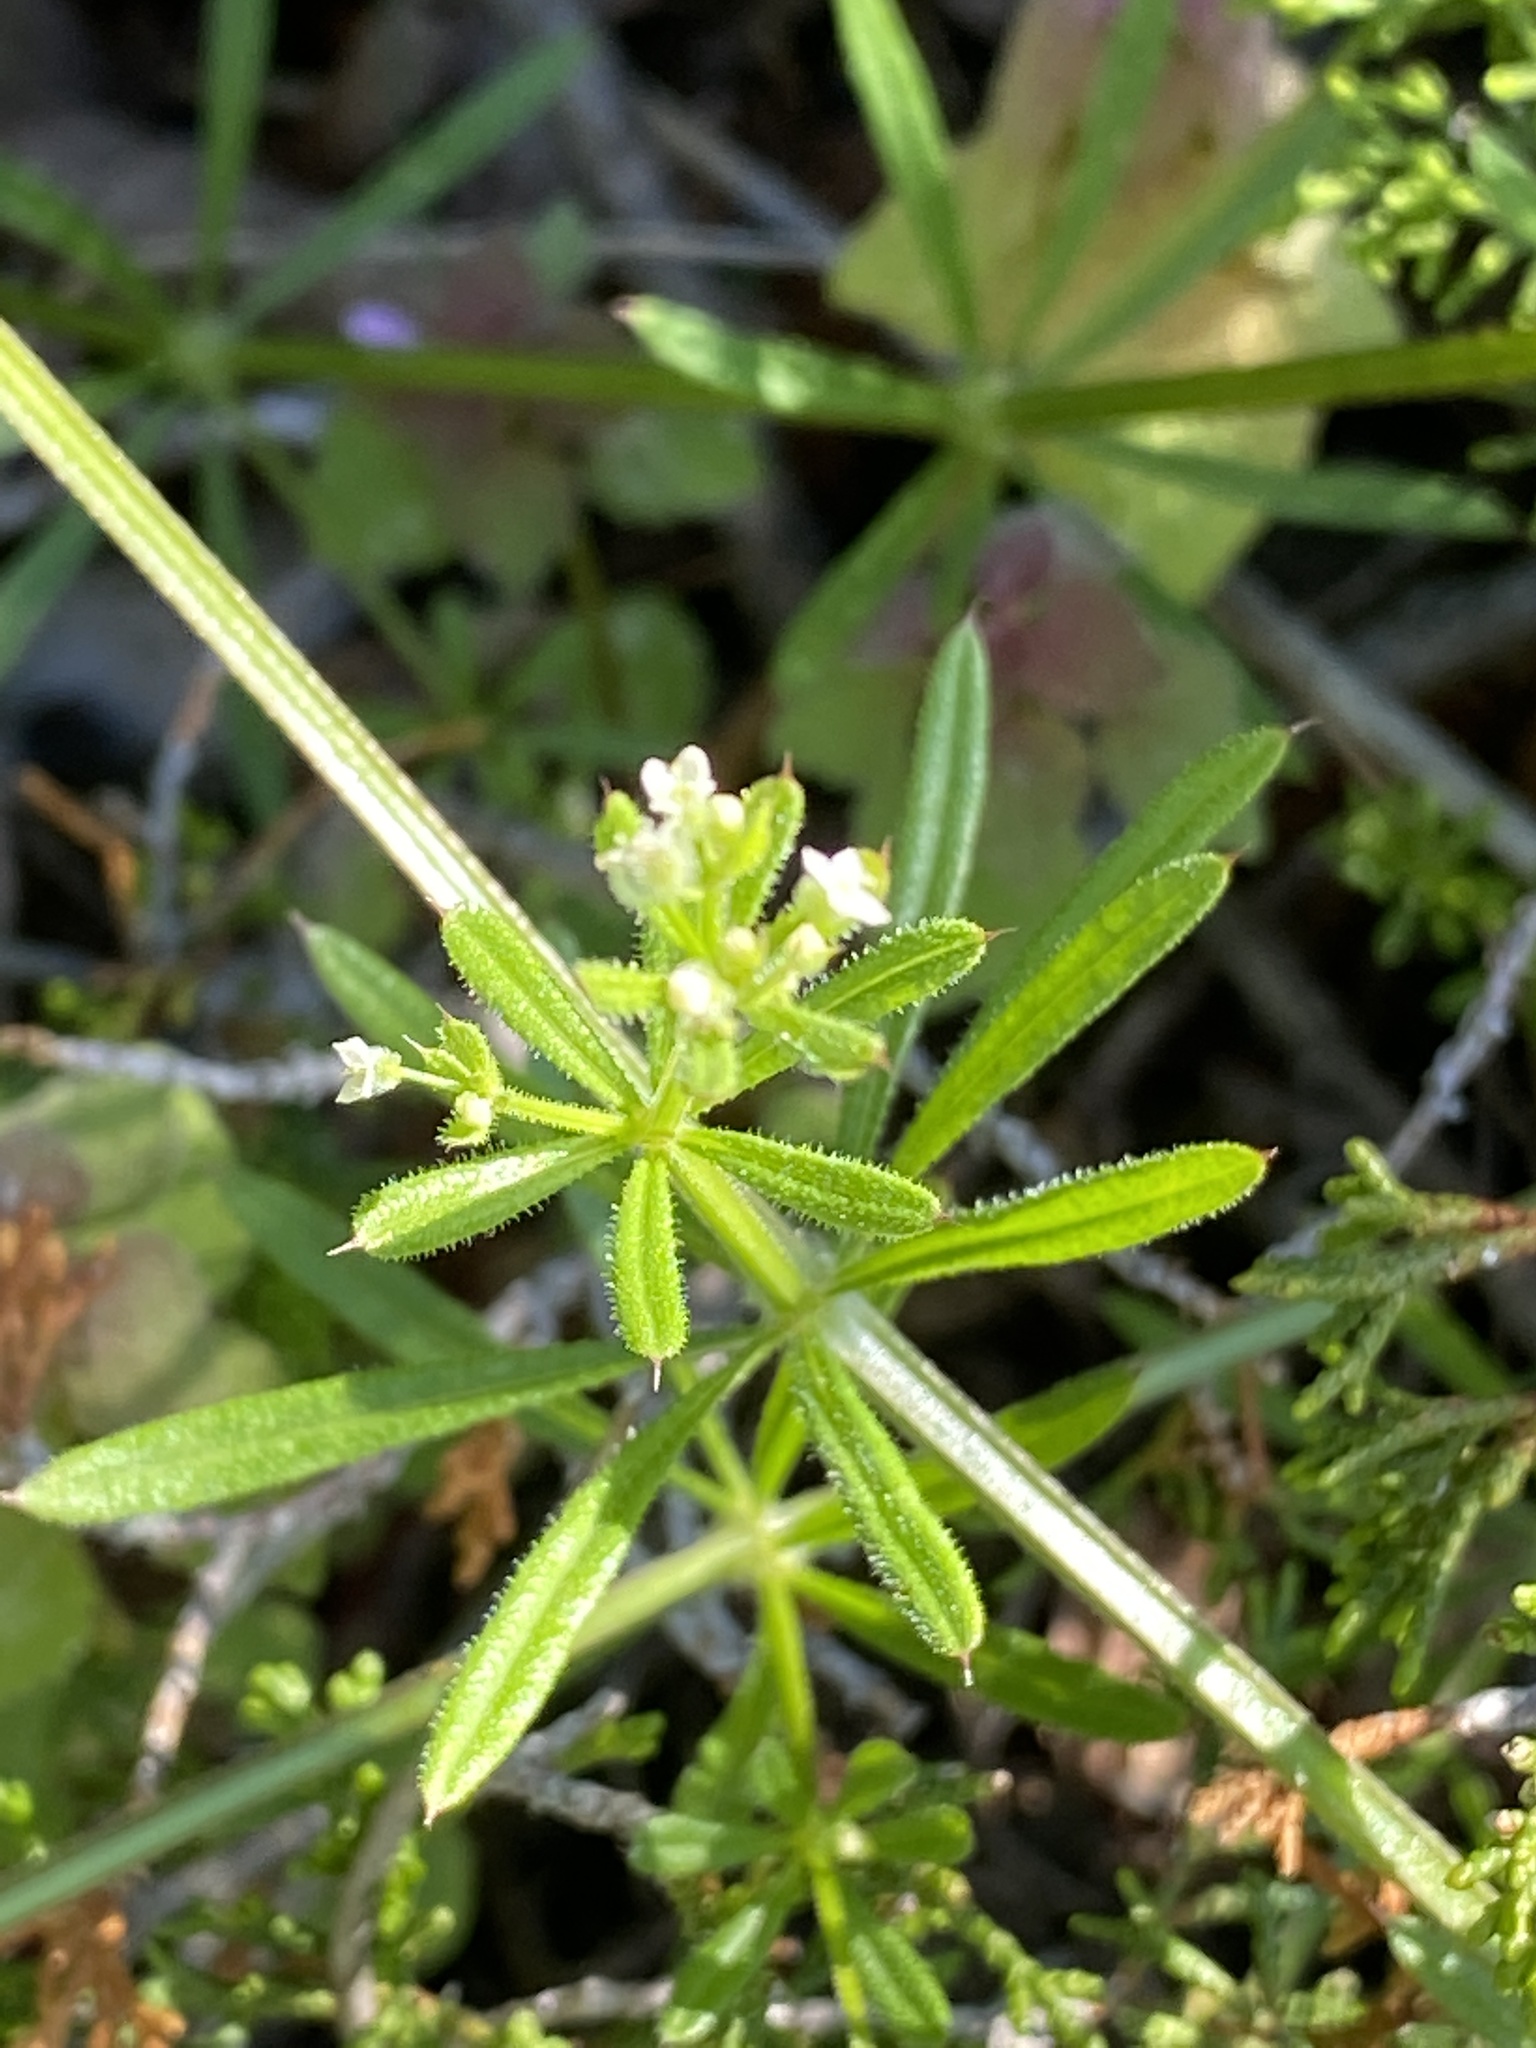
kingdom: Plantae
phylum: Tracheophyta
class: Magnoliopsida
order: Gentianales
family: Rubiaceae
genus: Galium
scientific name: Galium aparine
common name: Cleavers
